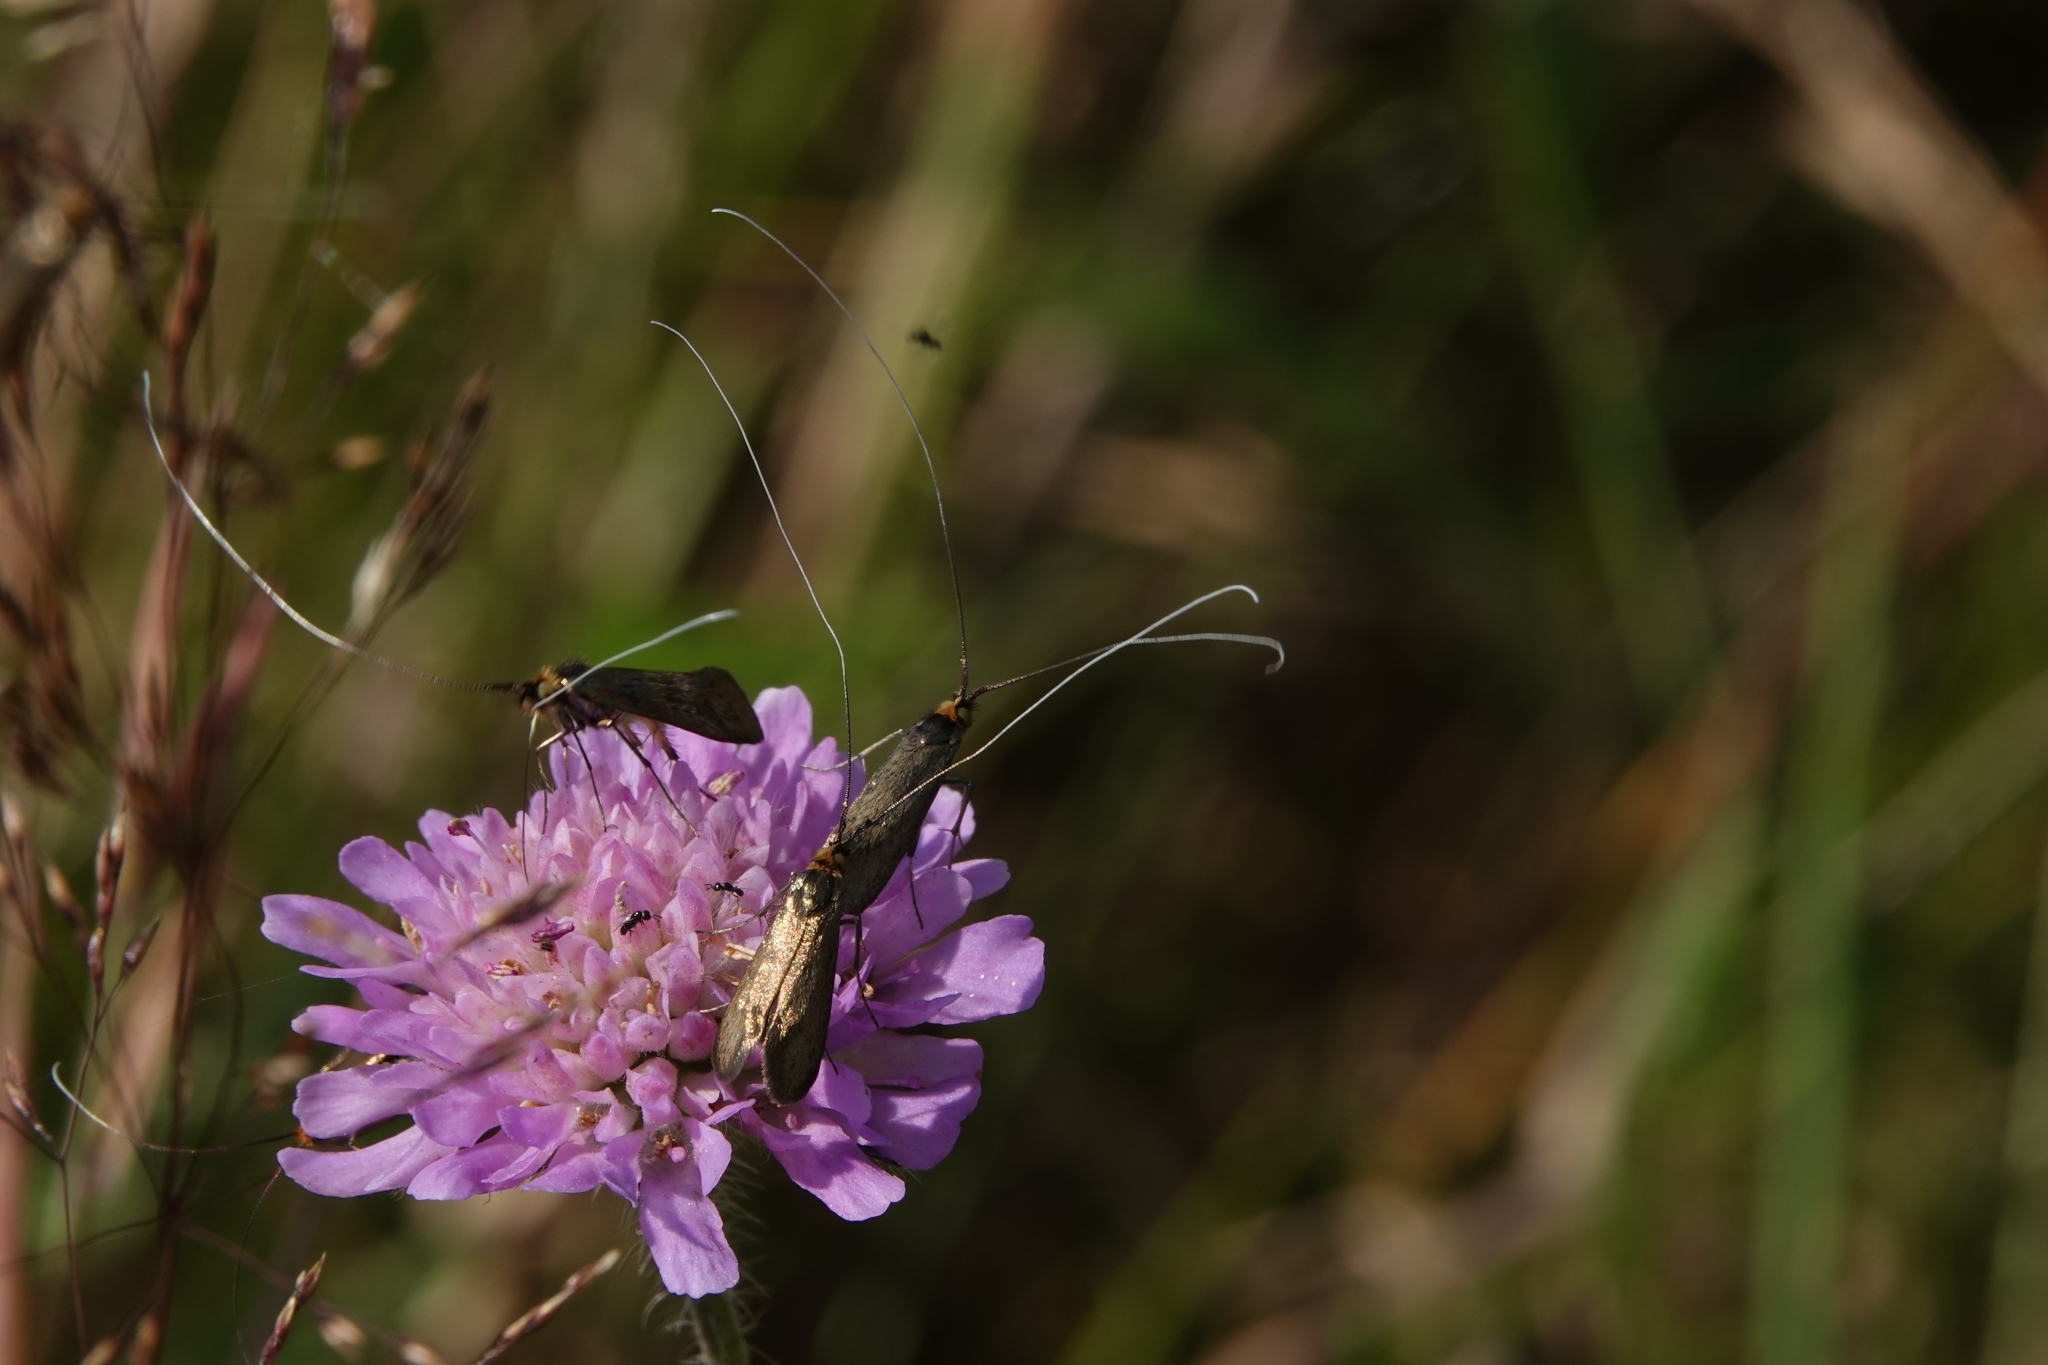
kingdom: Animalia
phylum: Arthropoda
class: Insecta
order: Lepidoptera
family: Adelidae
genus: Nemophora
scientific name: Nemophora metallica
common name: Brassy long-horn
